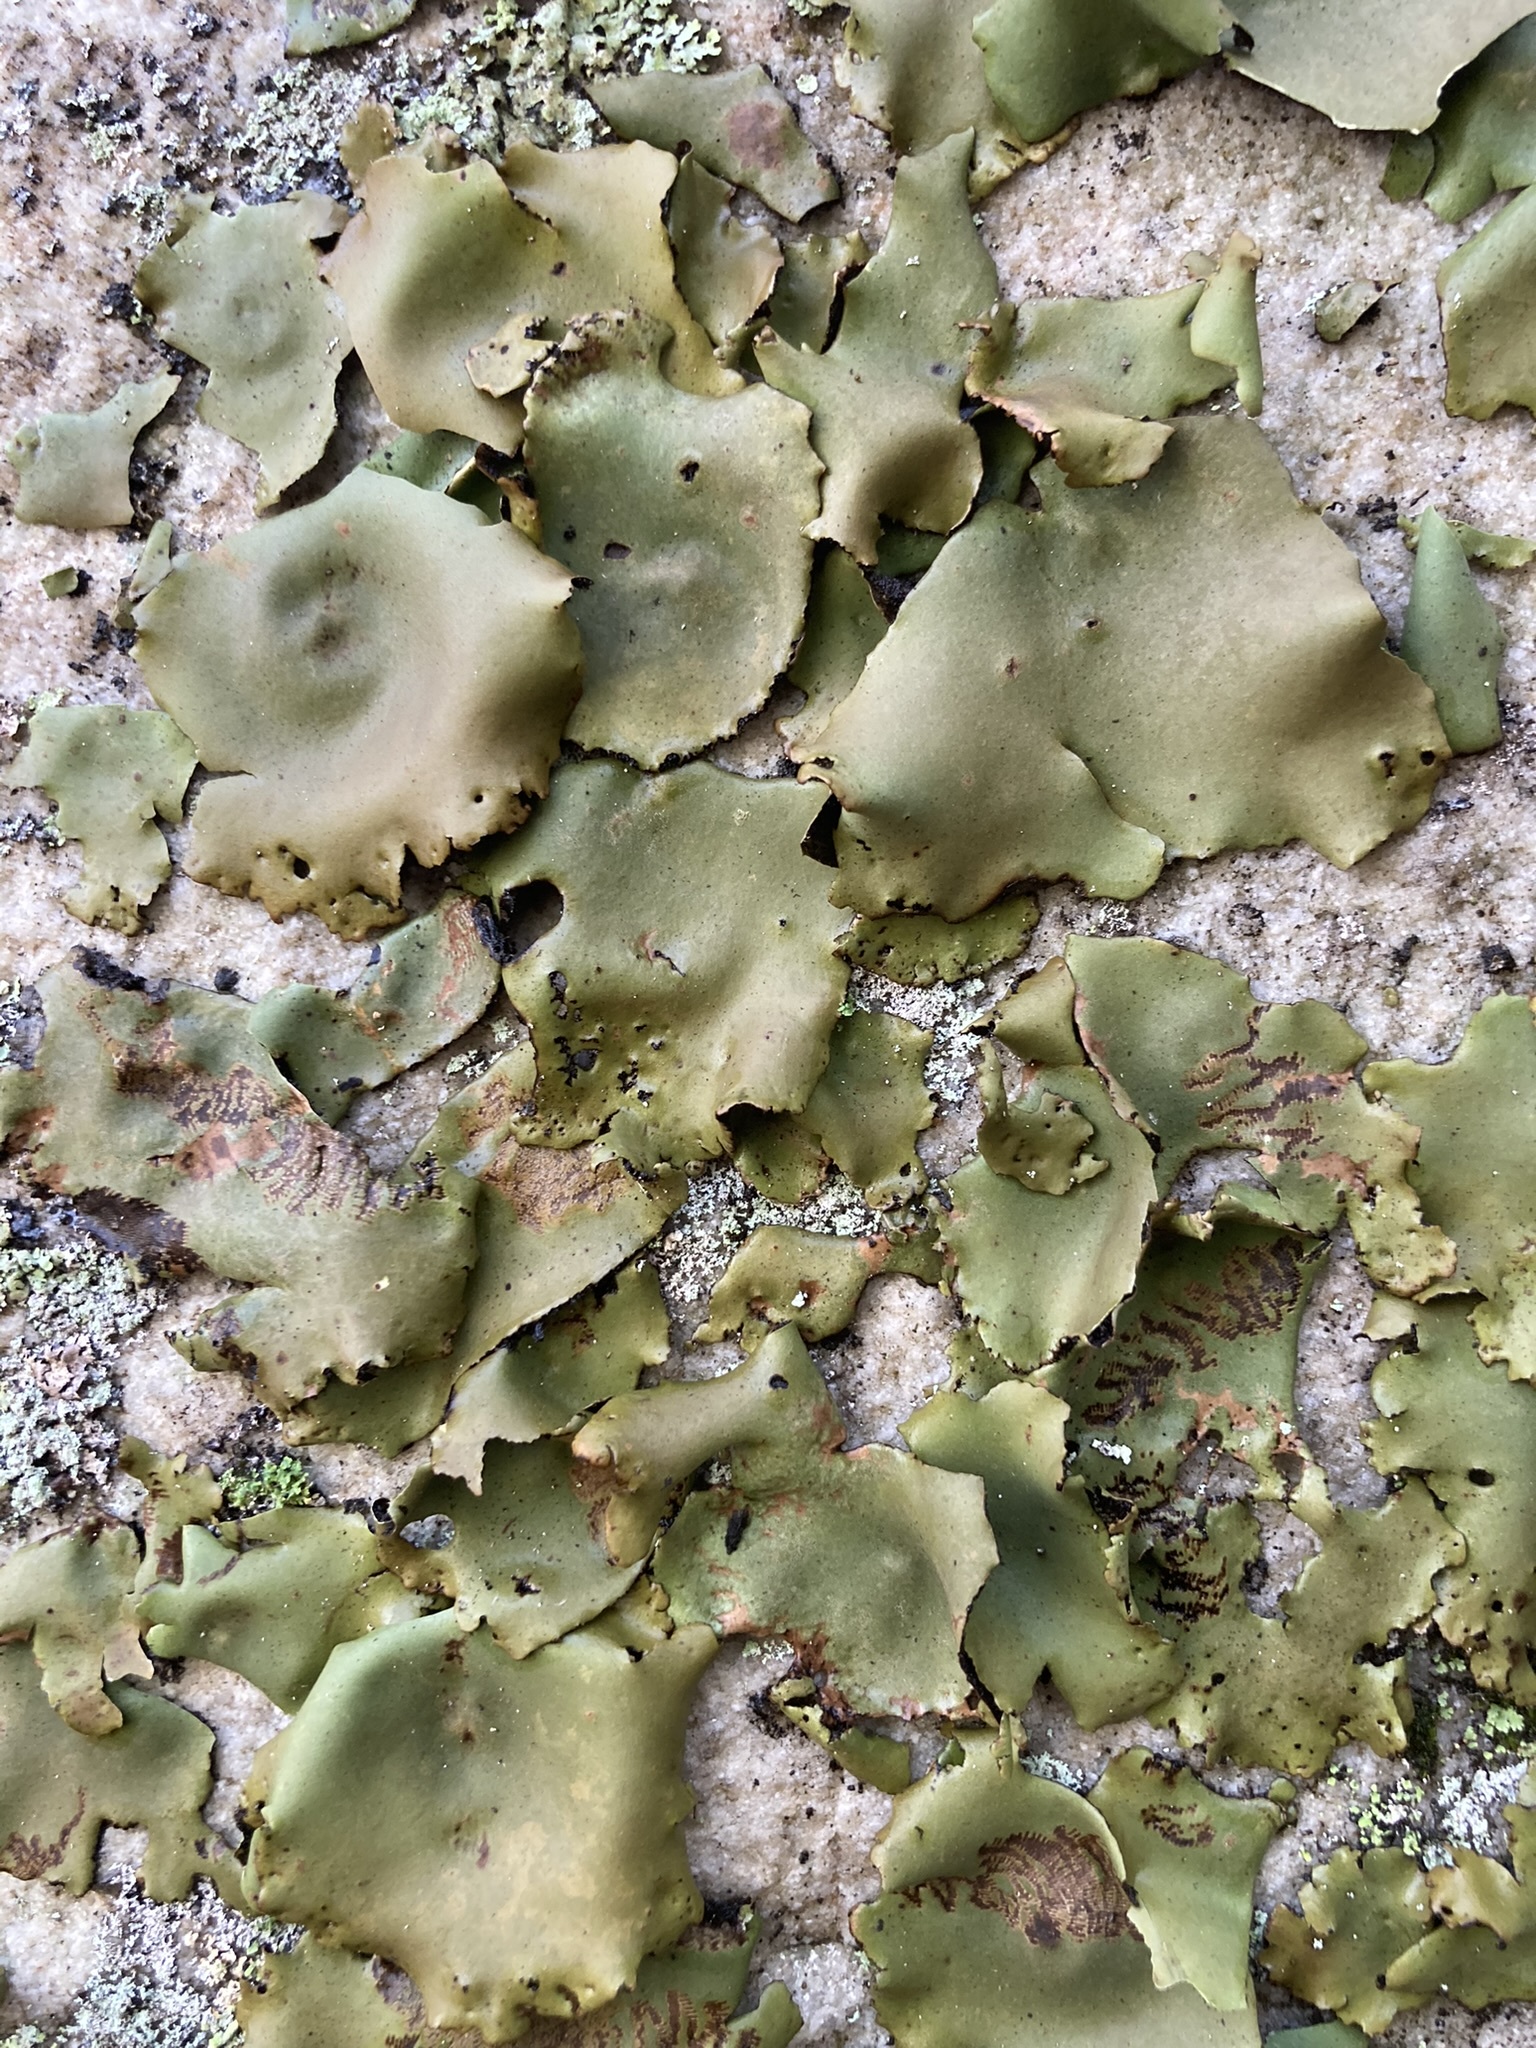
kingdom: Fungi
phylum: Ascomycota
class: Lecanoromycetes
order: Umbilicariales
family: Umbilicariaceae
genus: Umbilicaria
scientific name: Umbilicaria mammulata
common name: Smooth rock tripe
